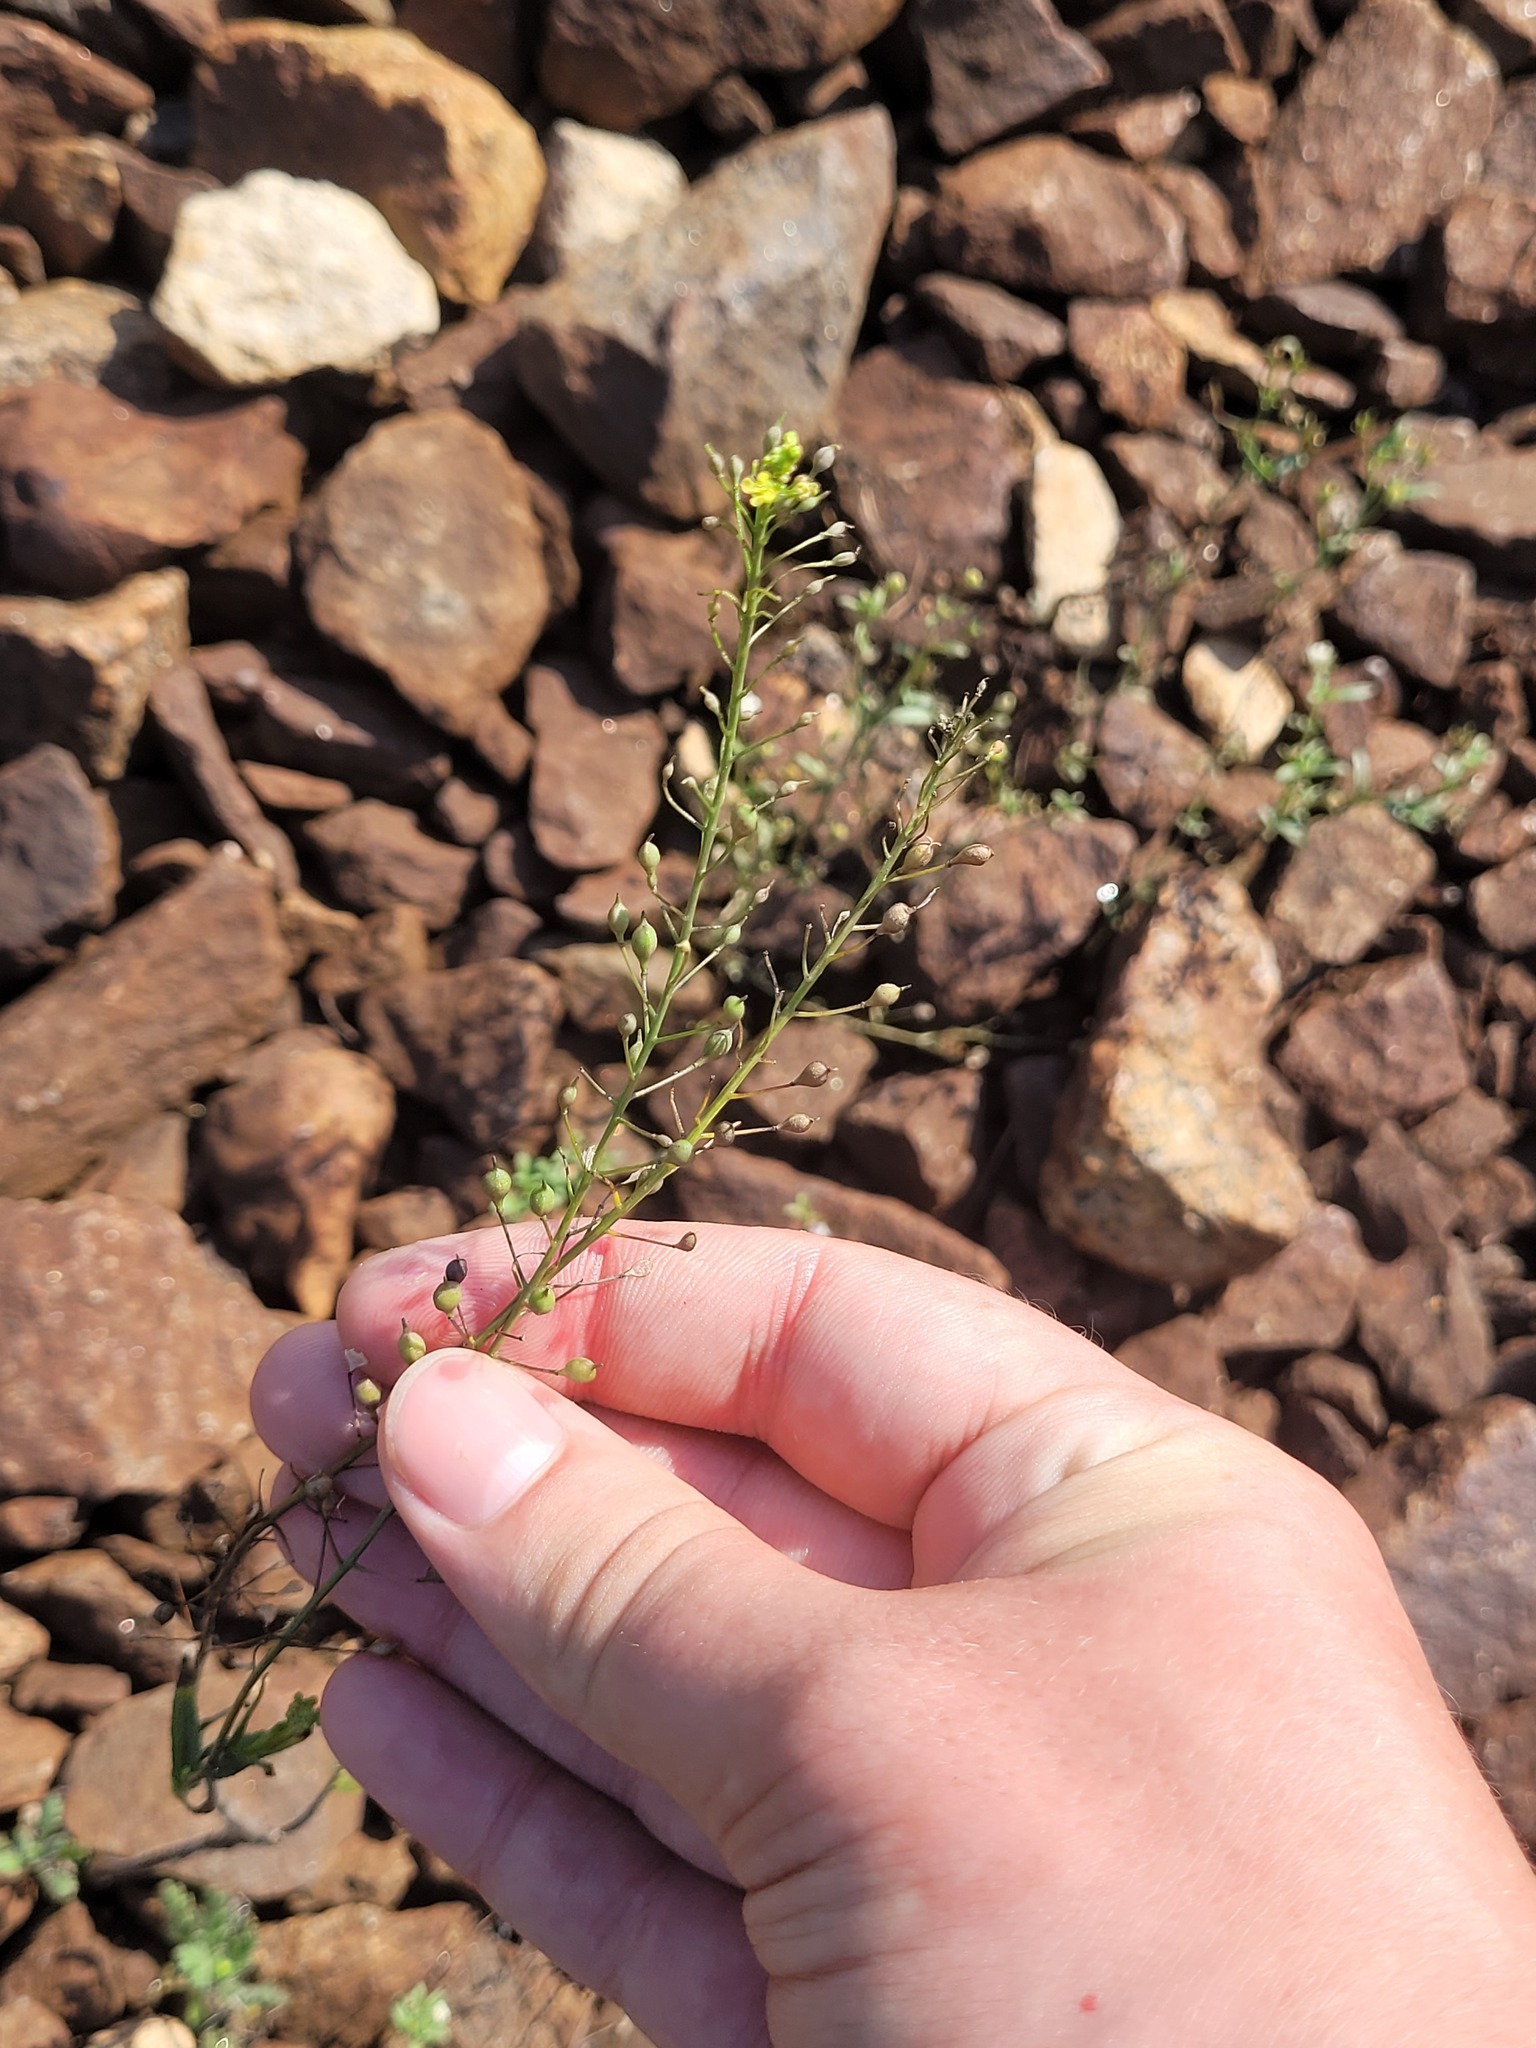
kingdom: Plantae
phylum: Tracheophyta
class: Magnoliopsida
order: Brassicales
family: Brassicaceae
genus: Camelina
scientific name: Camelina microcarpa
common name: Lesser gold-of-pleasure
